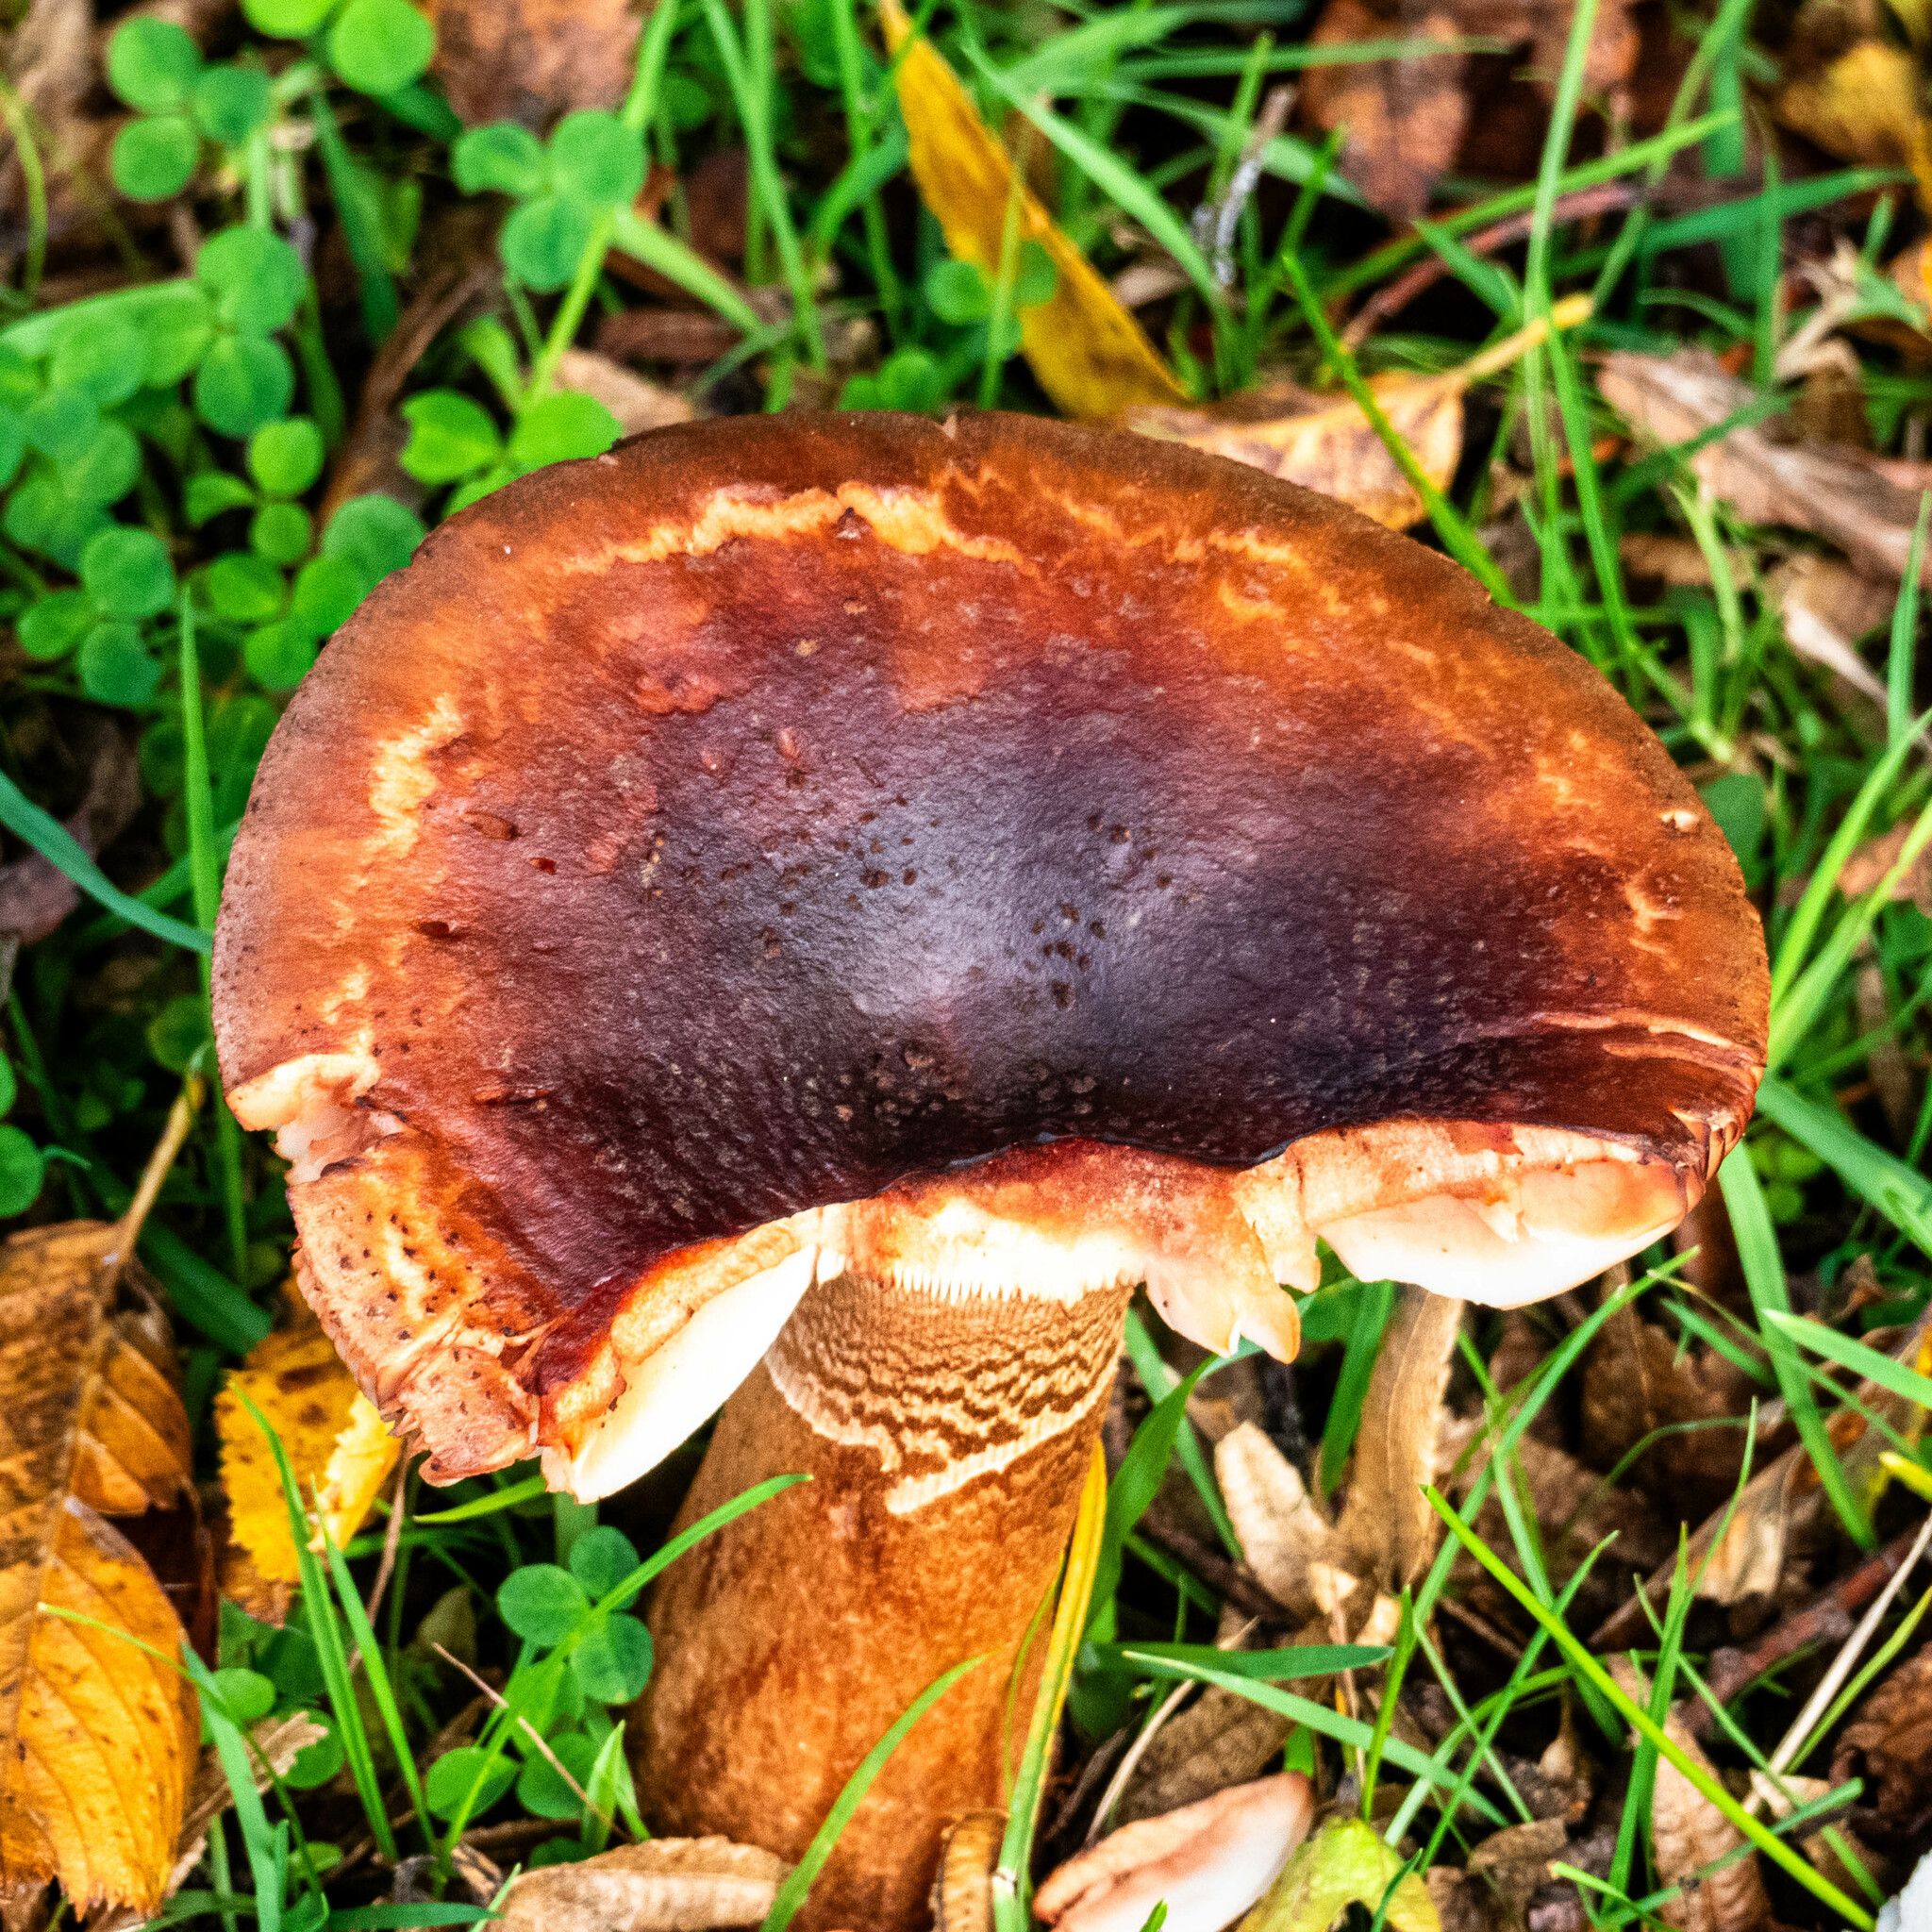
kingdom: Fungi
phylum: Basidiomycota
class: Agaricomycetes
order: Agaricales
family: Amanitaceae
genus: Amanita
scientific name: Amanita rubescens
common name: Blusher
